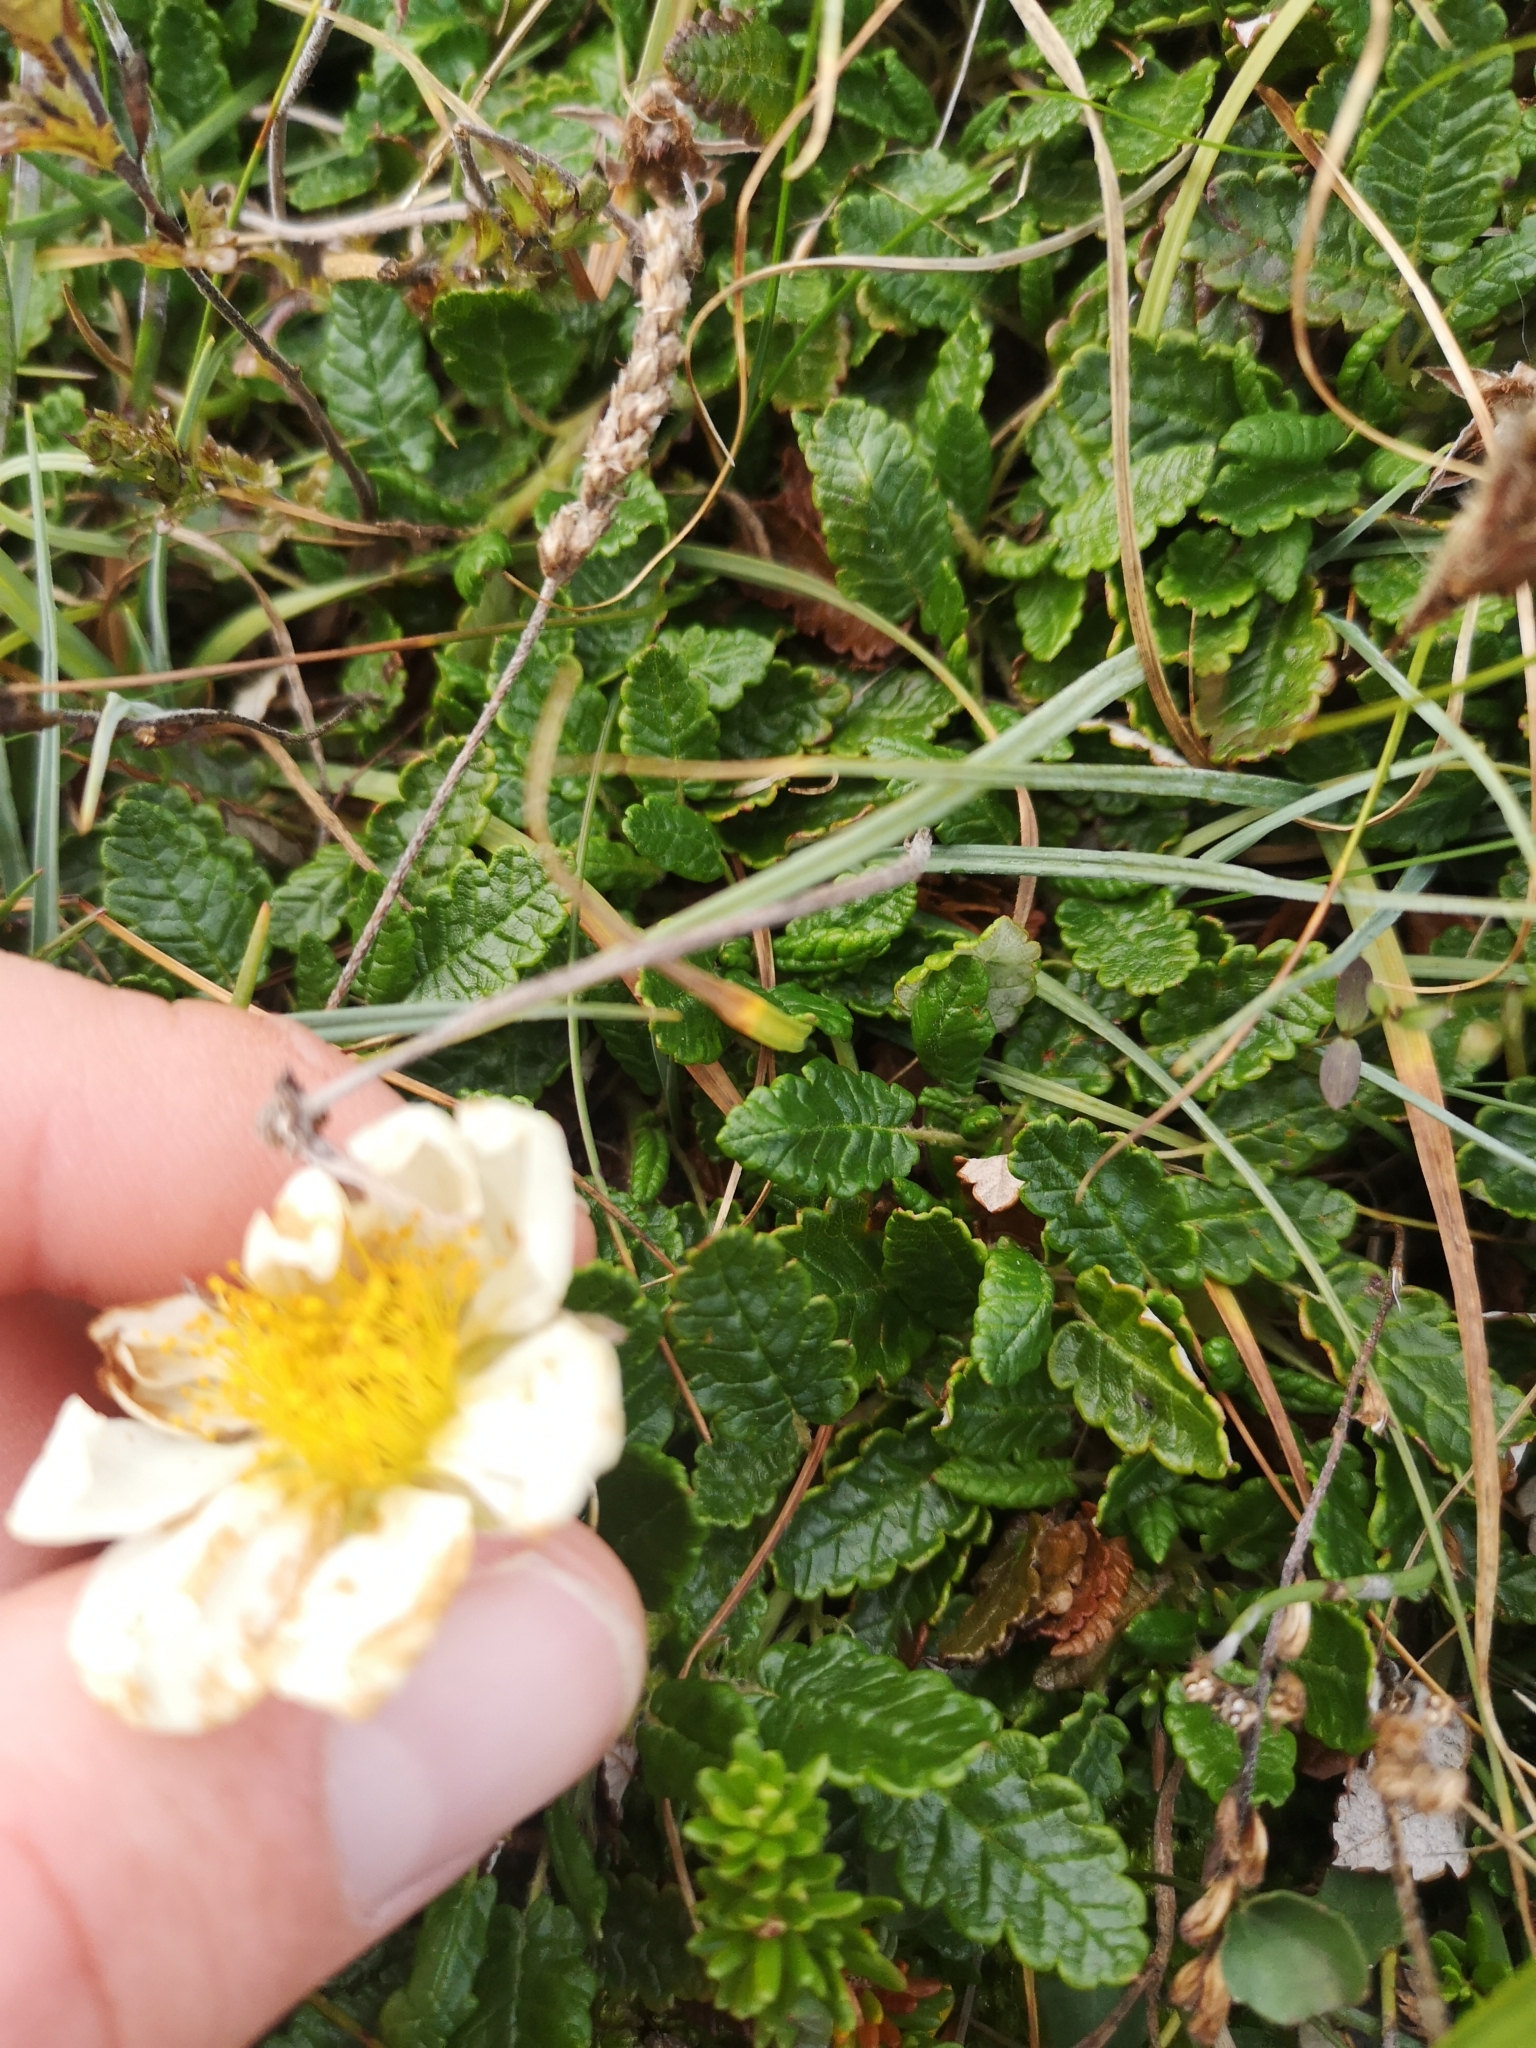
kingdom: Plantae
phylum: Tracheophyta
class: Magnoliopsida
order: Rosales
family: Rosaceae
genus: Dryas
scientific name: Dryas octopetala
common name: Eight-petal mountain-avens
